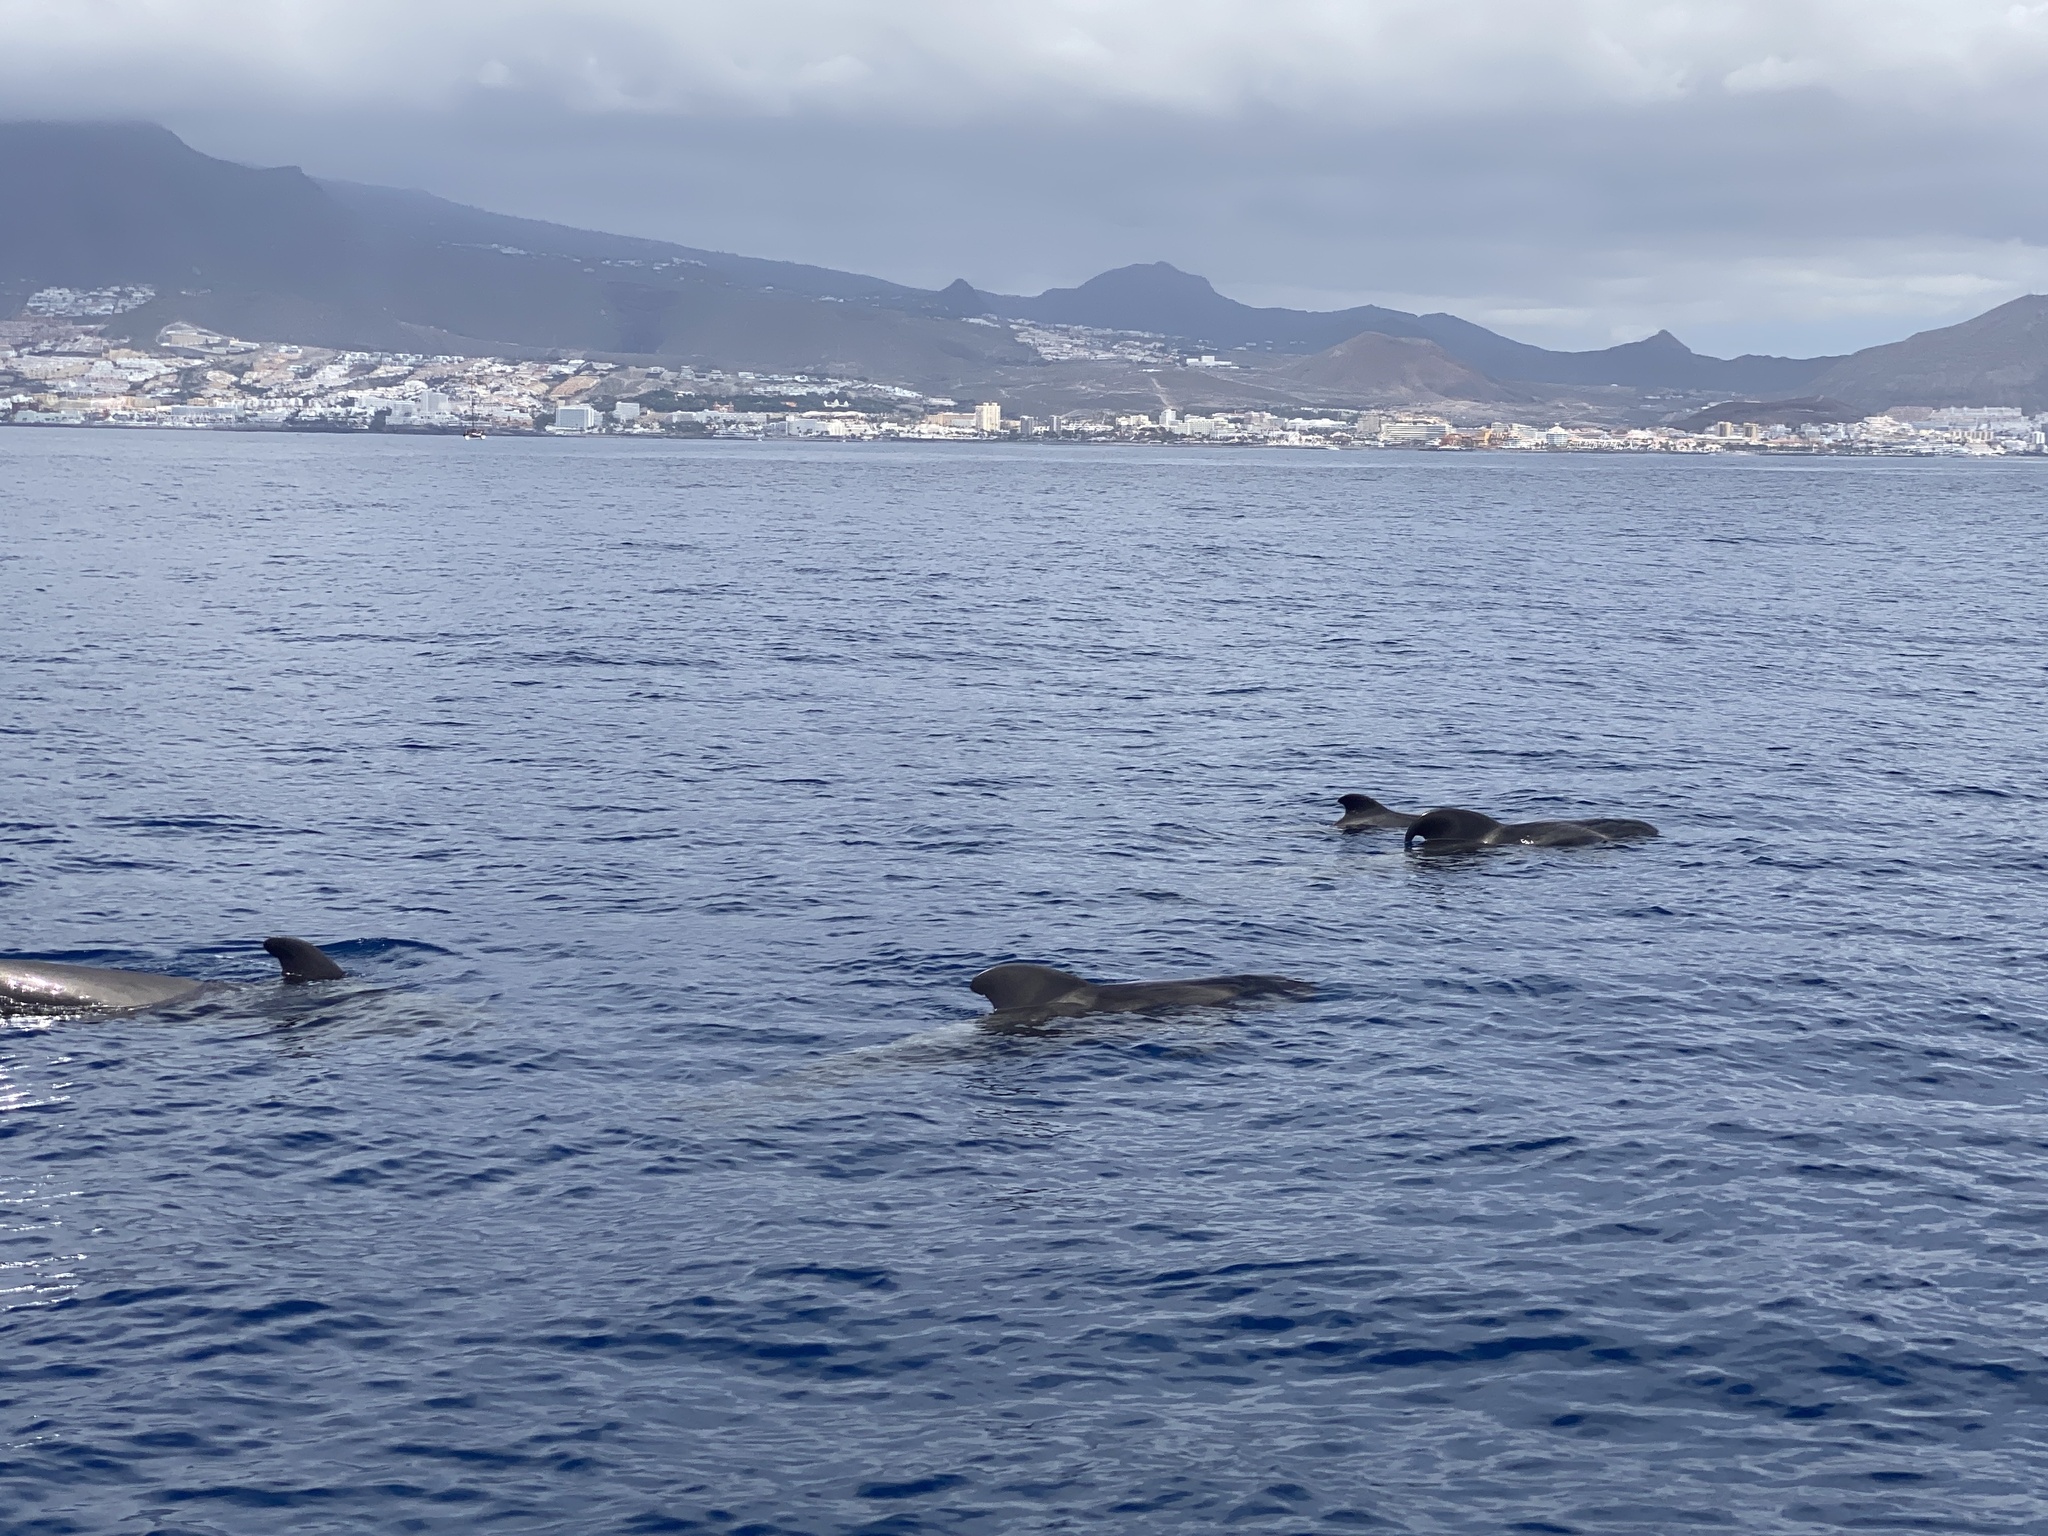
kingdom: Animalia
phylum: Chordata
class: Mammalia
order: Cetacea
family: Delphinidae
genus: Globicephala
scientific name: Globicephala macrorhynchus
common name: Short-finned pilot whale
